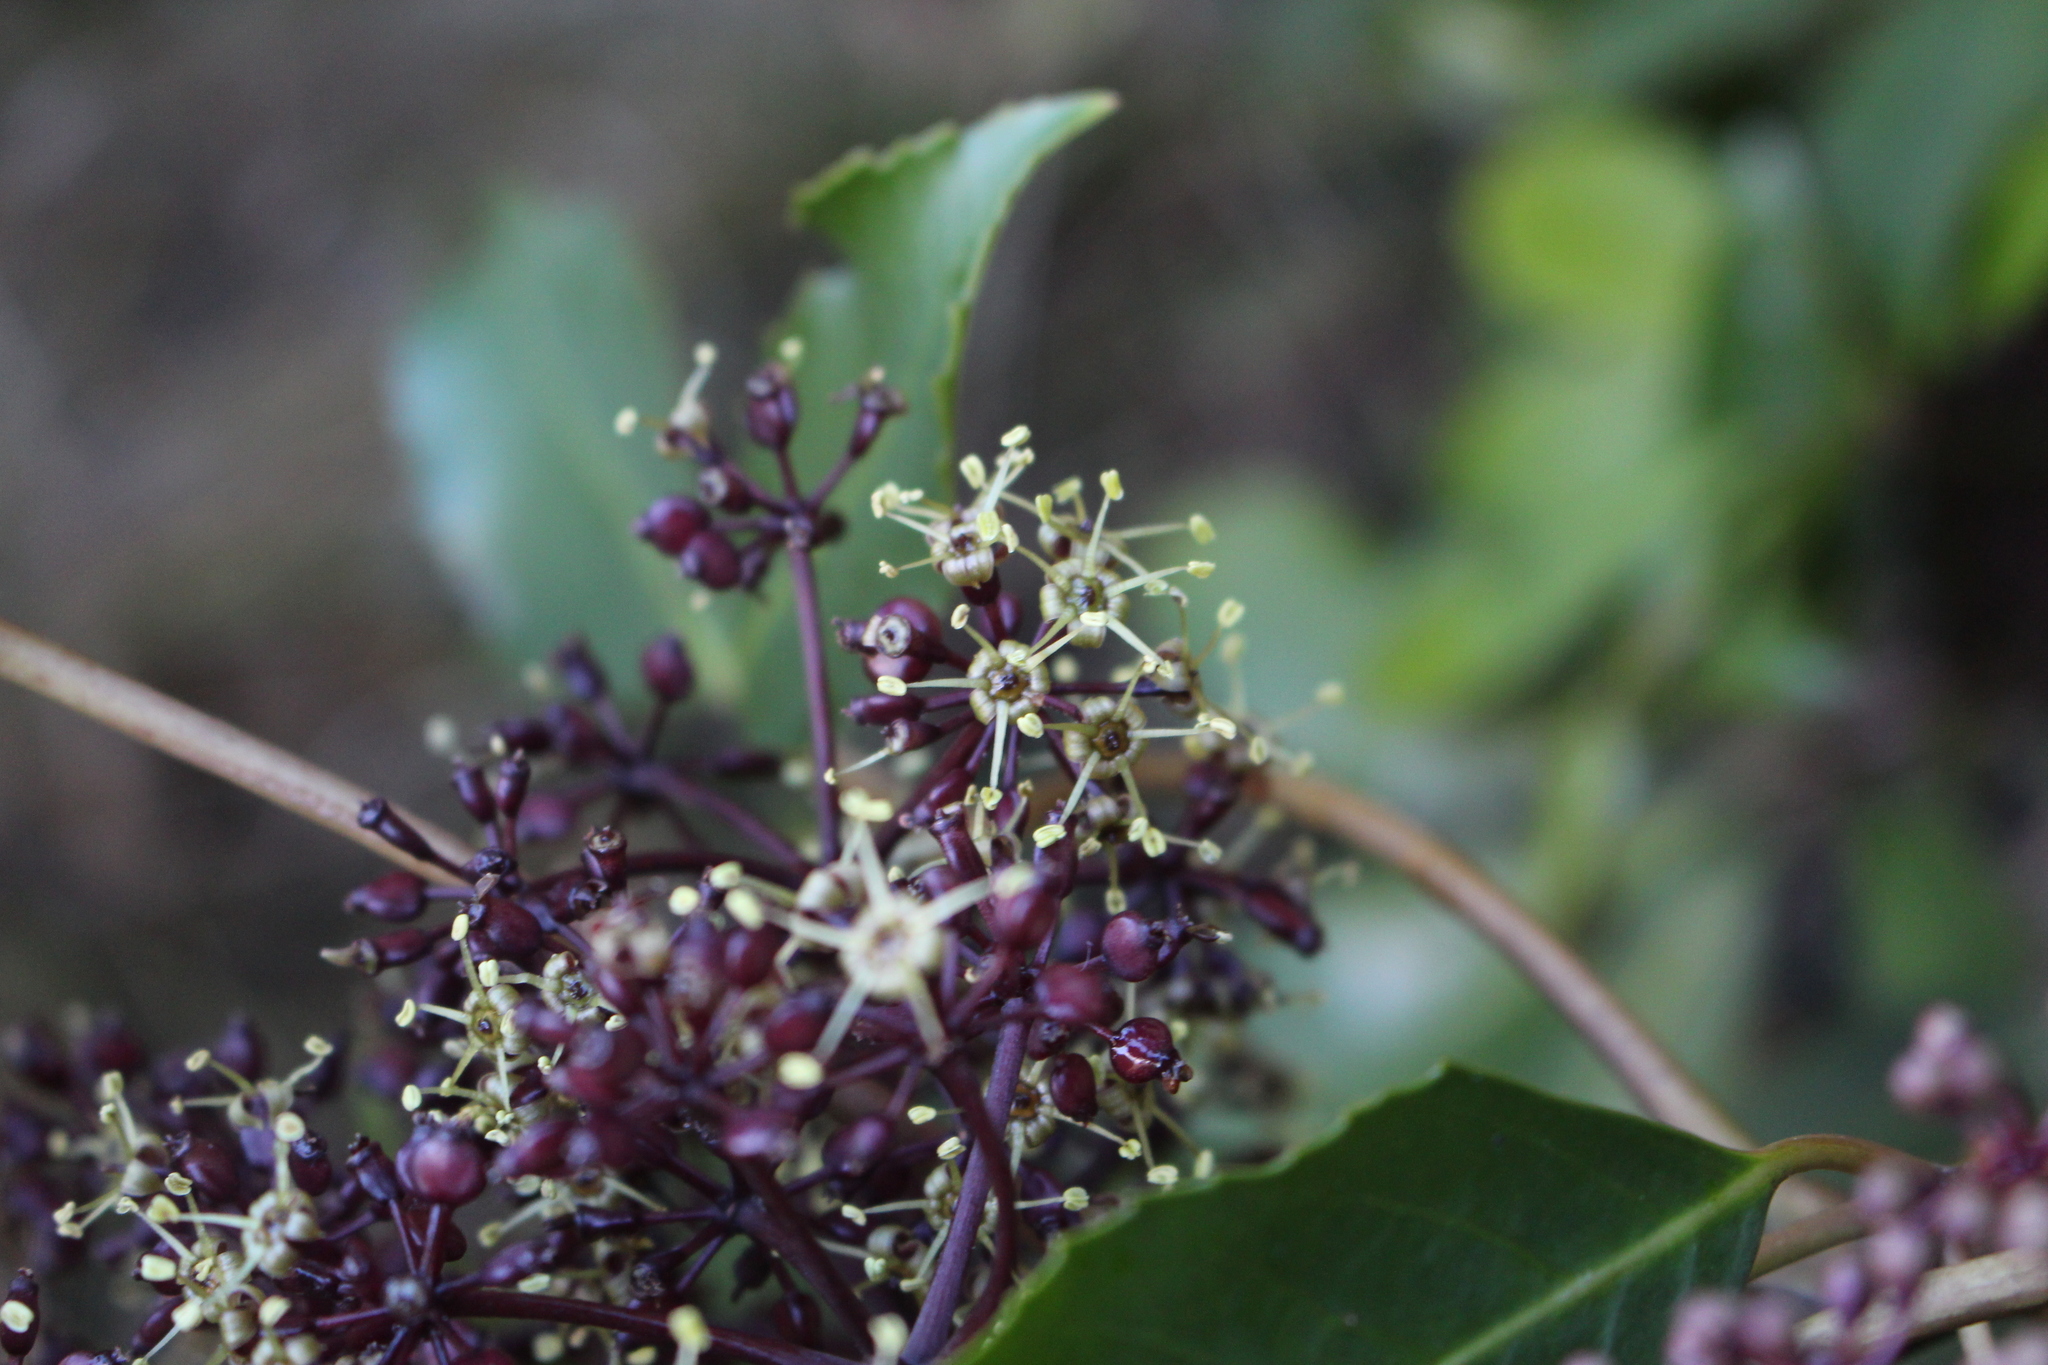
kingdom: Plantae
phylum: Tracheophyta
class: Magnoliopsida
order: Apiales
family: Araliaceae
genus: Neopanax
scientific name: Neopanax arboreus
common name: Five-fingers
